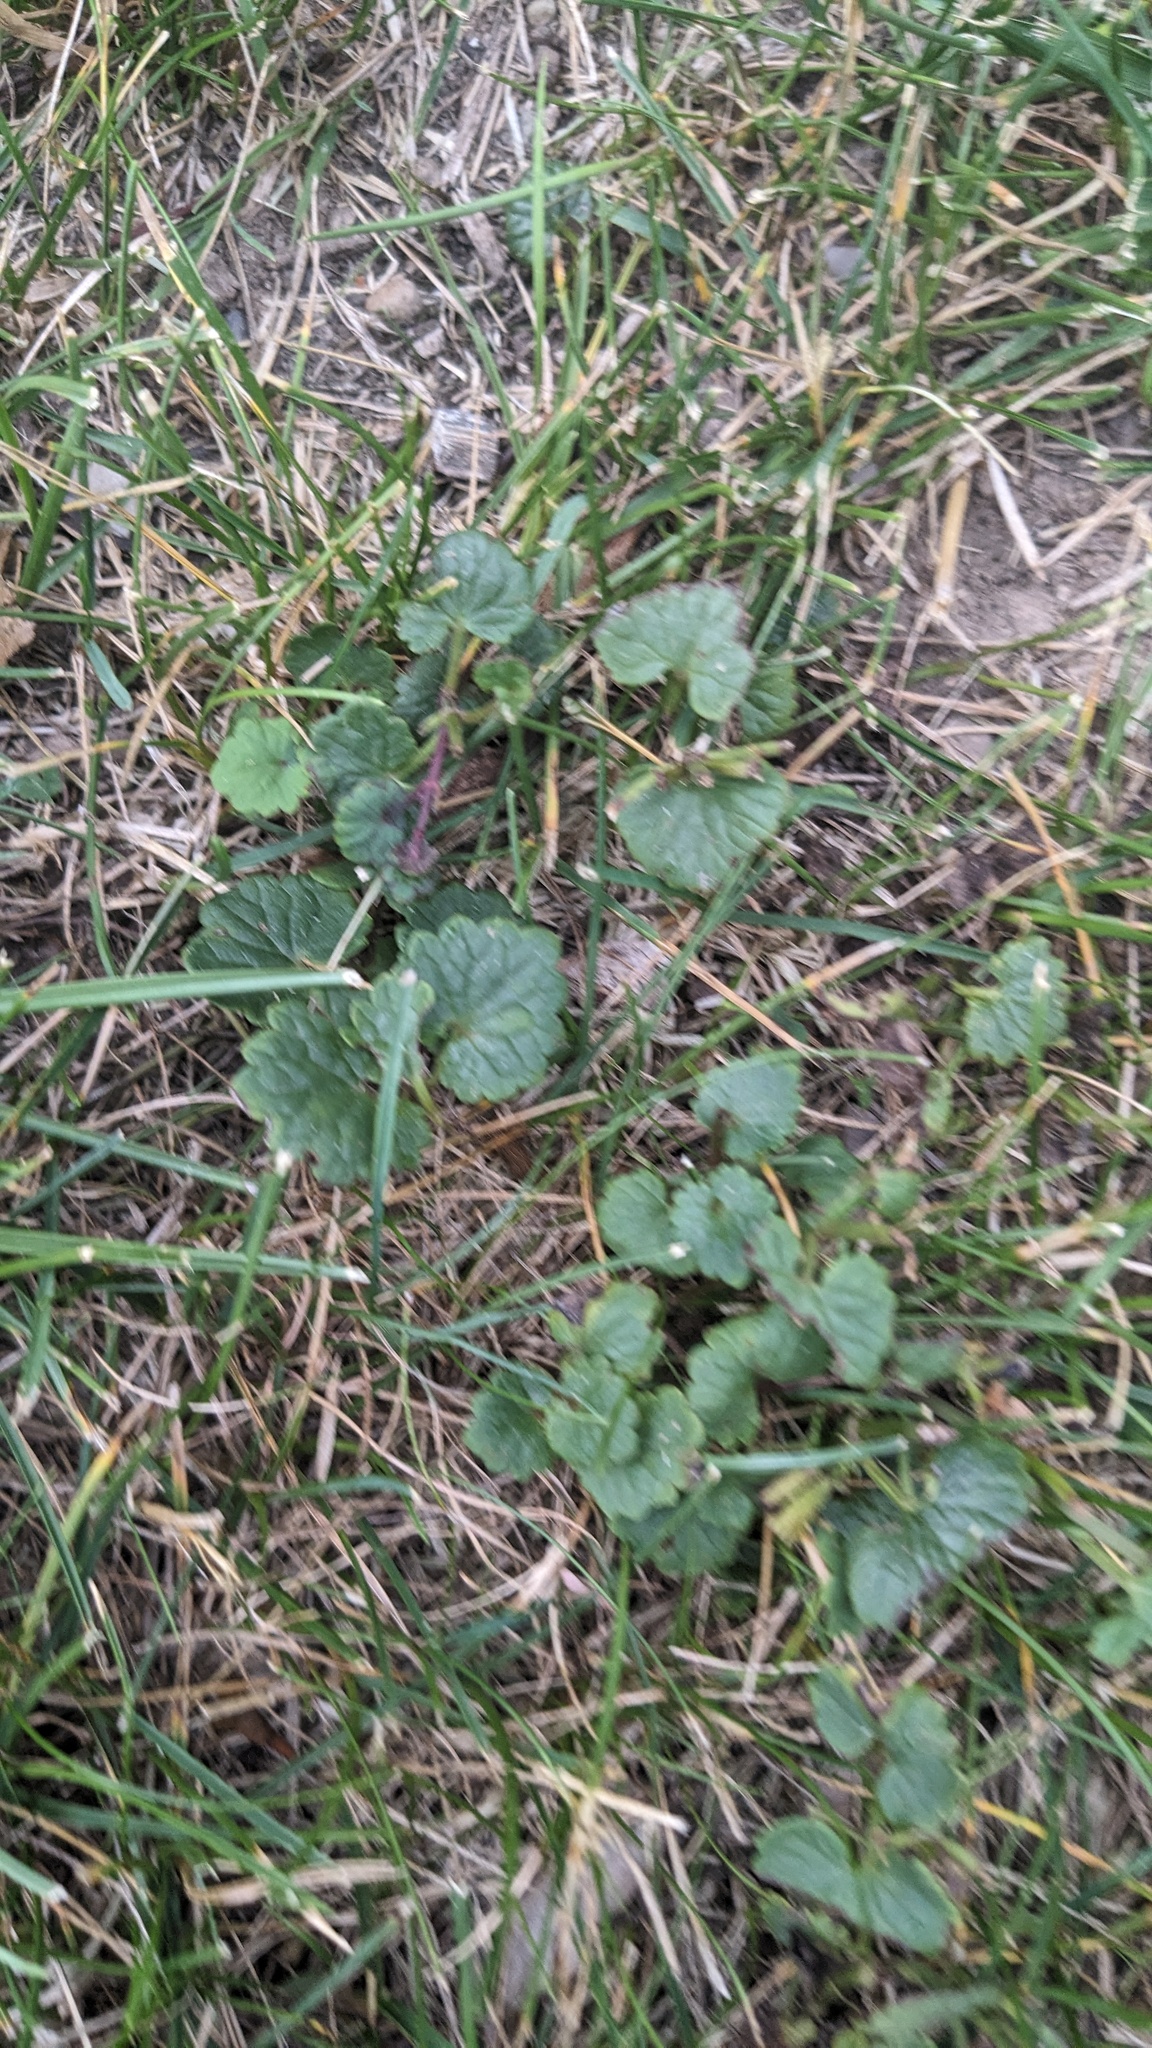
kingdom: Plantae
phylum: Tracheophyta
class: Magnoliopsida
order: Lamiales
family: Lamiaceae
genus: Glechoma
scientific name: Glechoma hederacea
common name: Ground ivy
